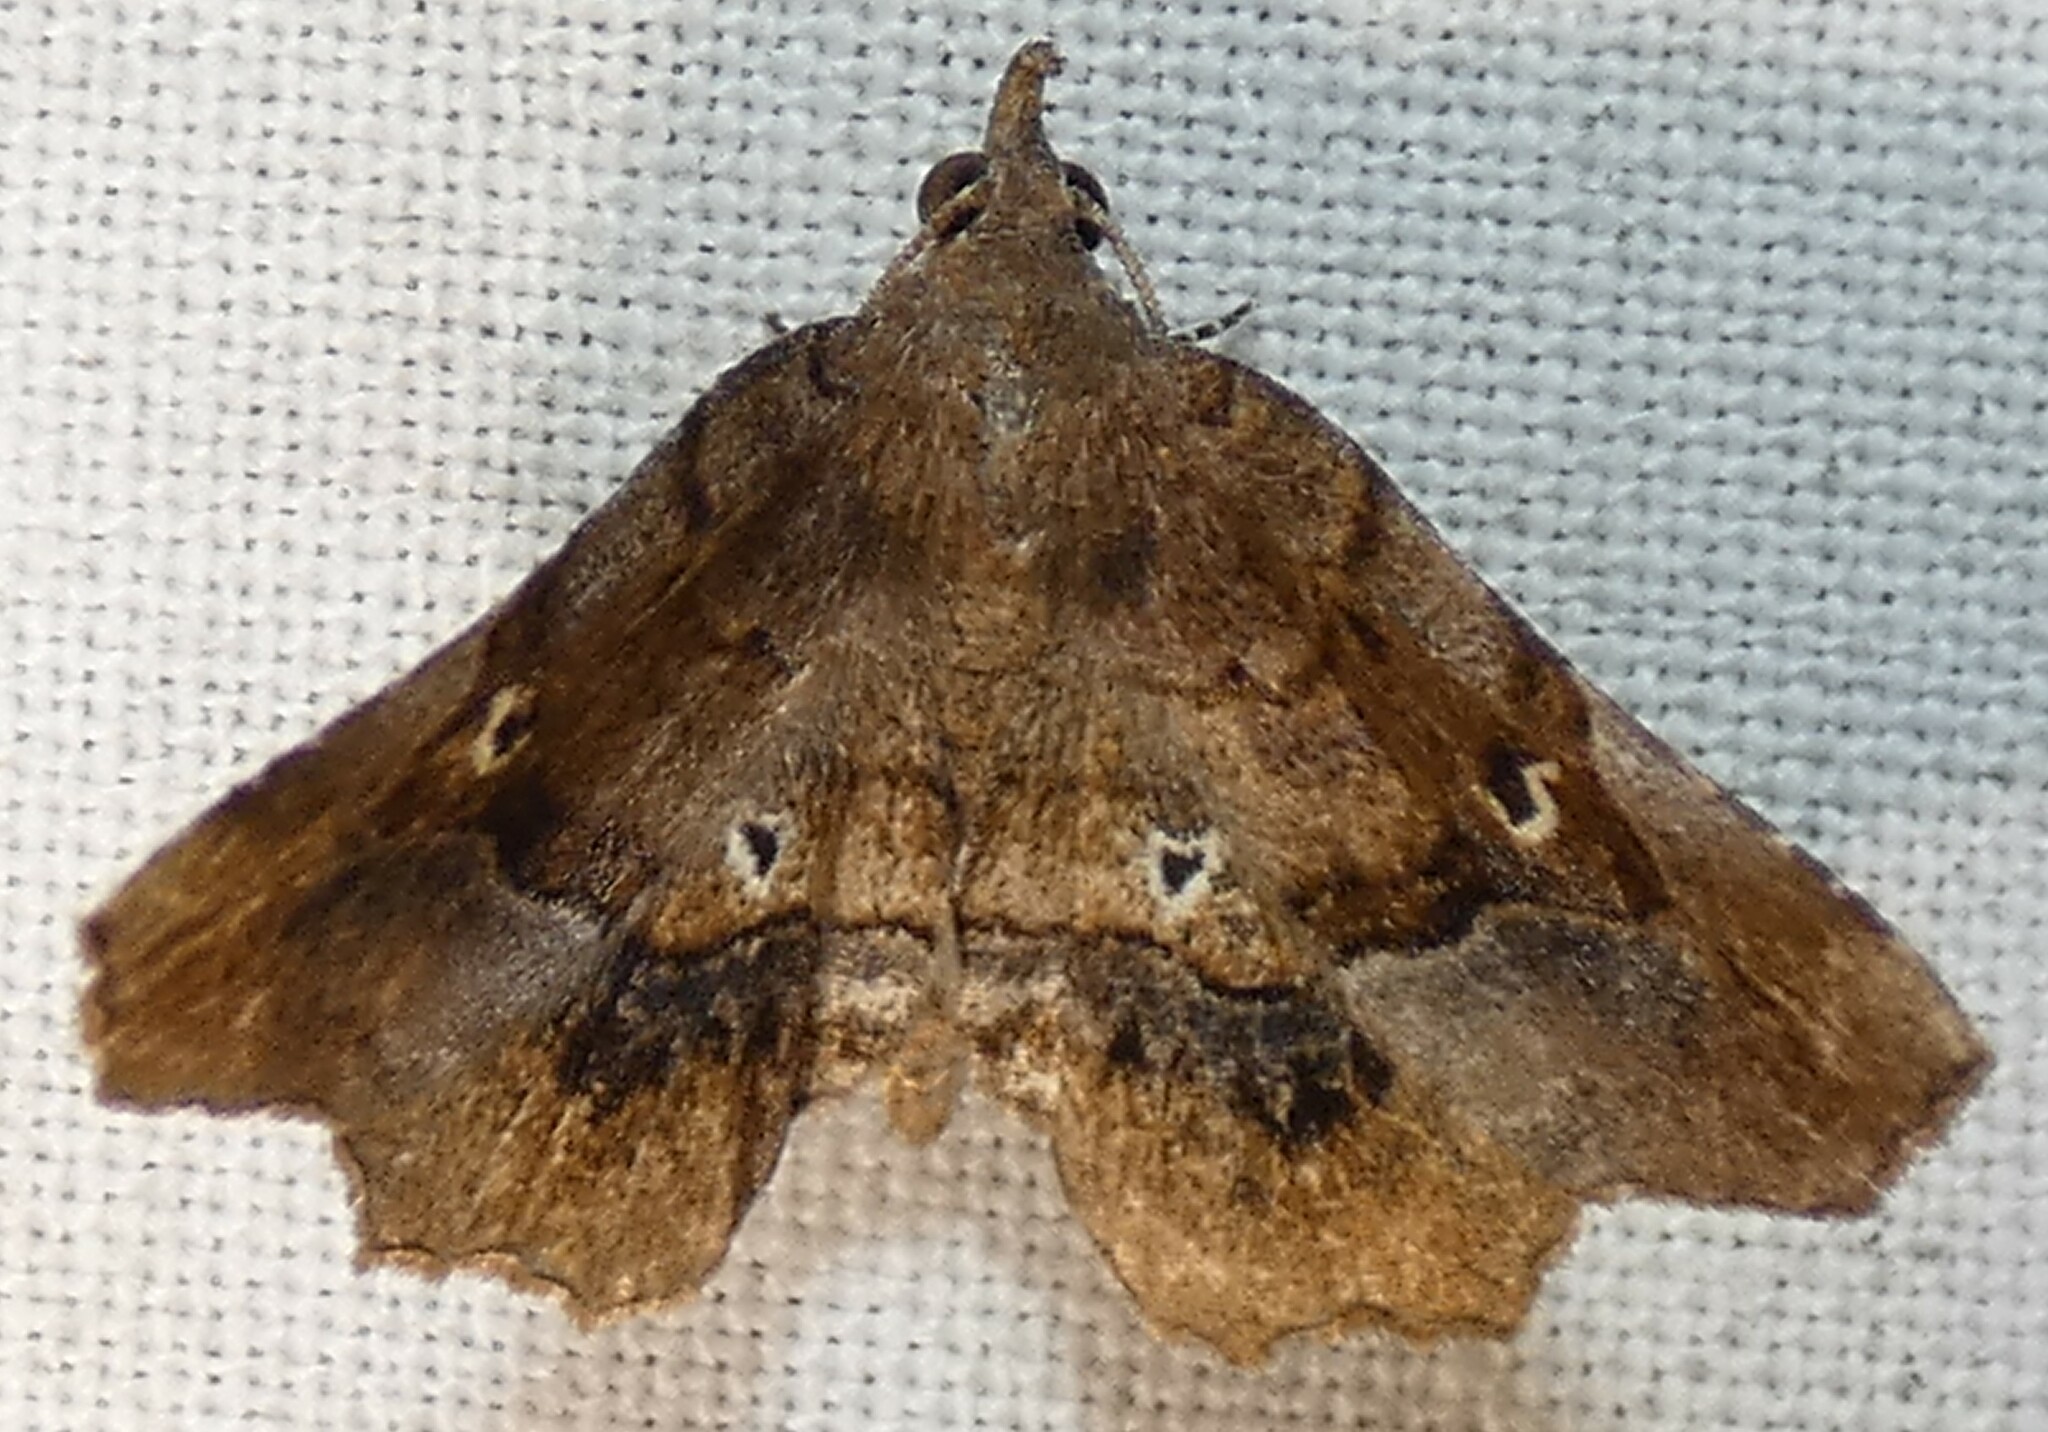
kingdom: Animalia
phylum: Arthropoda
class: Insecta
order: Lepidoptera
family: Erebidae
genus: Pangrapta
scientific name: Pangrapta decoralis
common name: Decorated owlet
